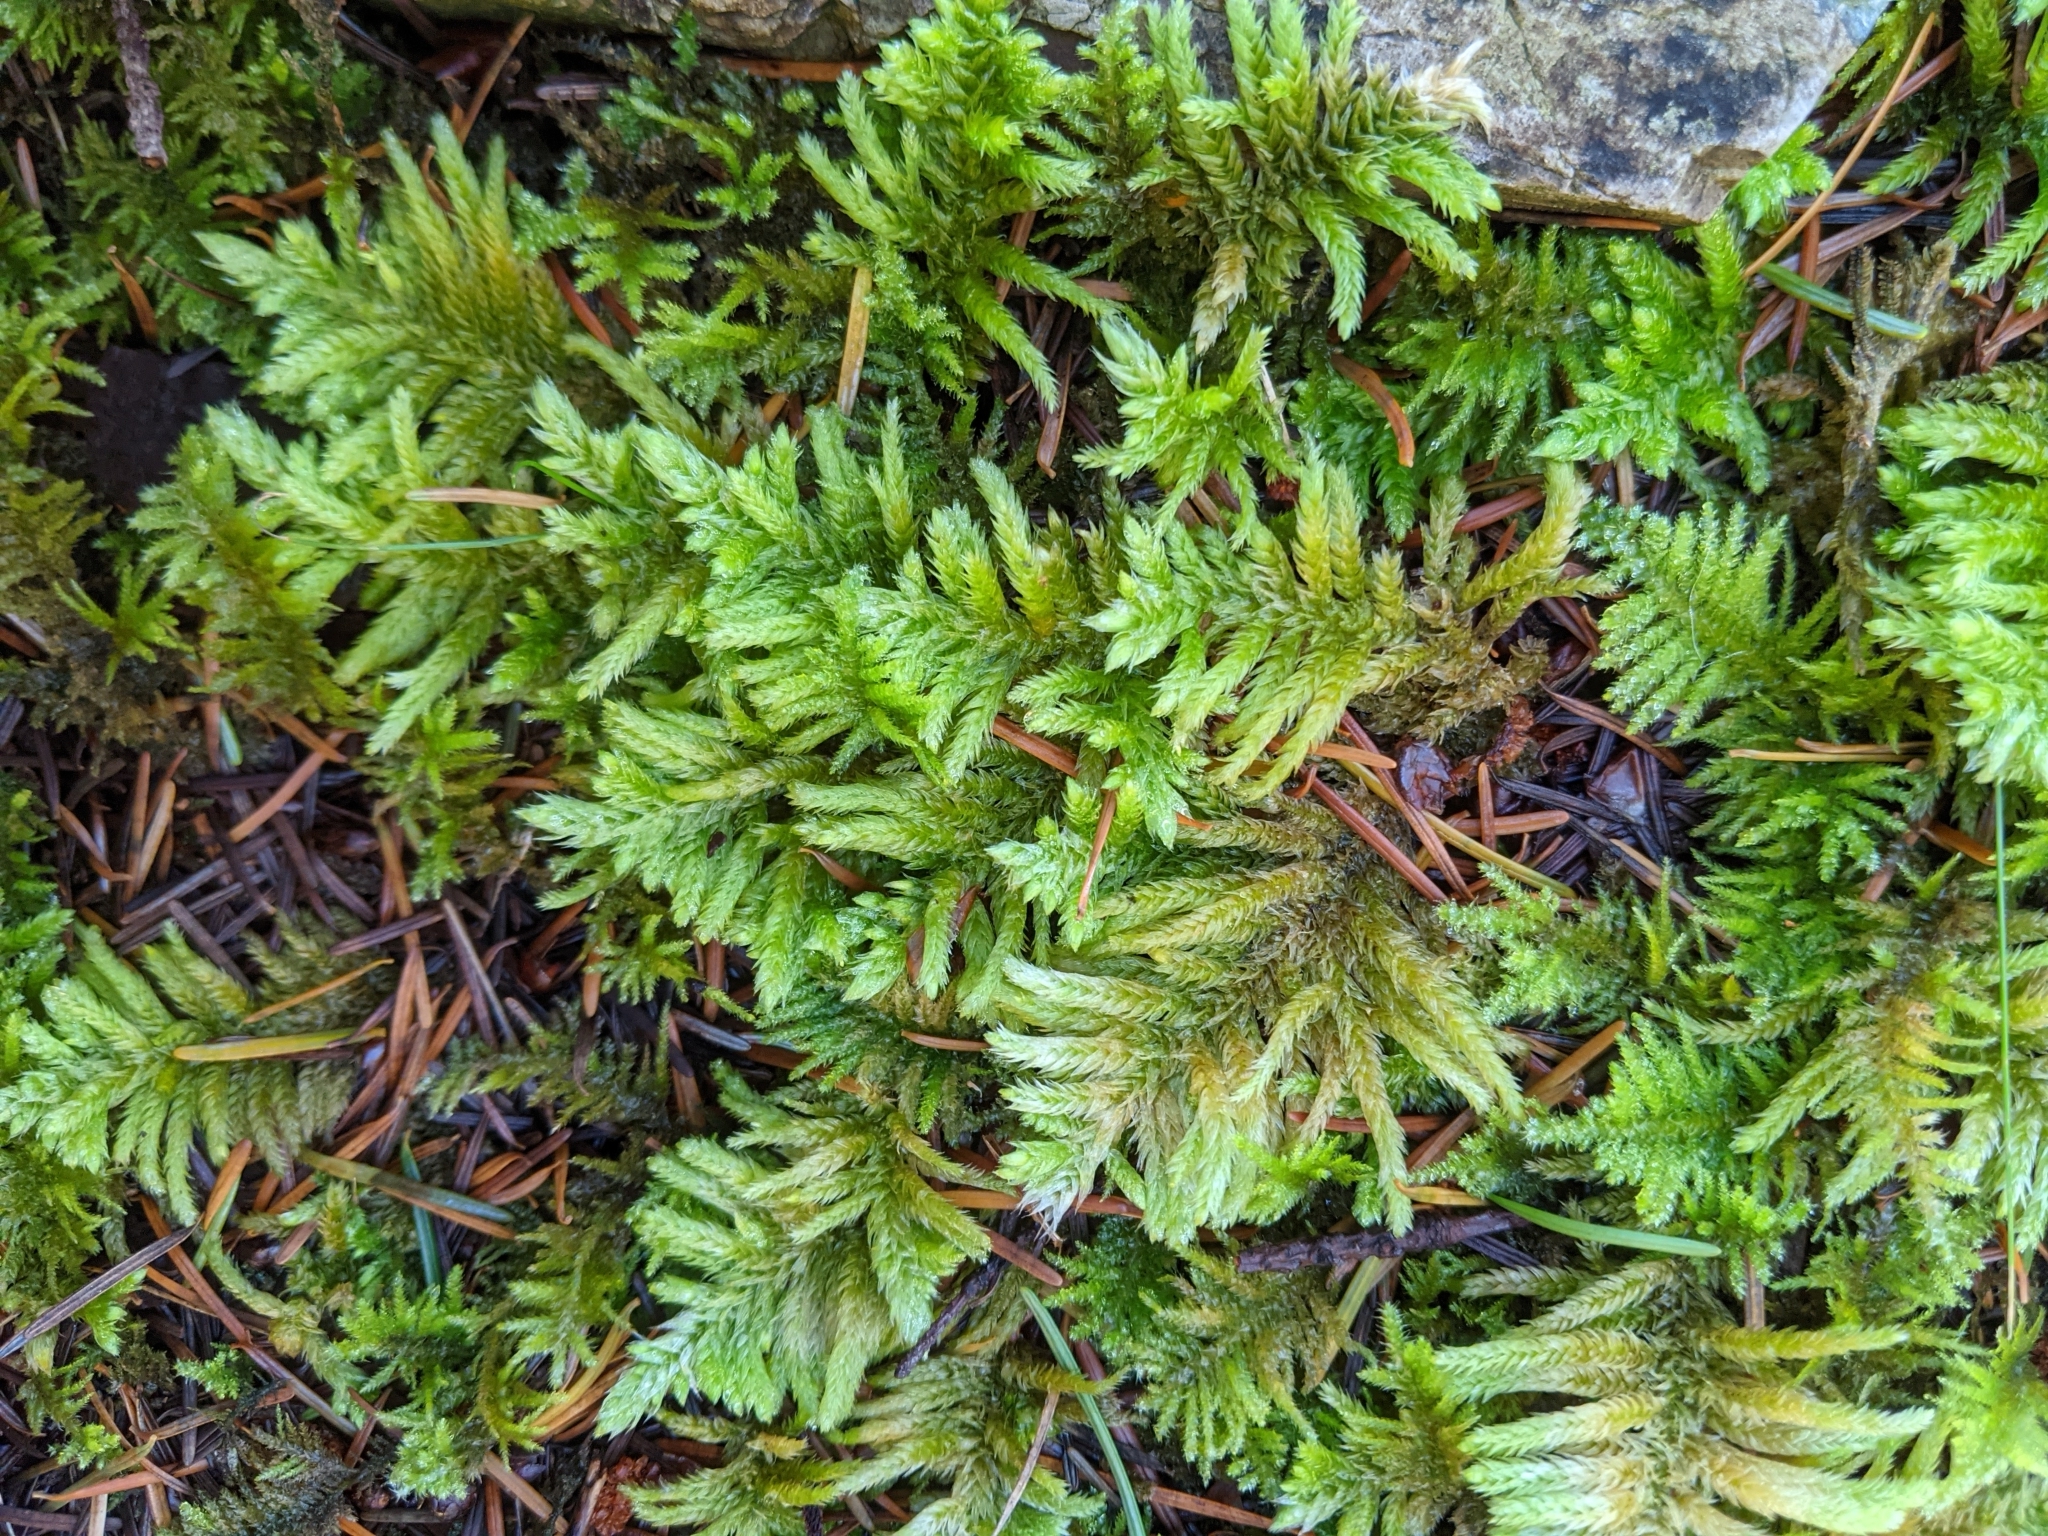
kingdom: Plantae
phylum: Bryophyta
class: Bryopsida
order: Hypnales
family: Brachytheciaceae
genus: Homalothecium
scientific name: Homalothecium megaptilum
